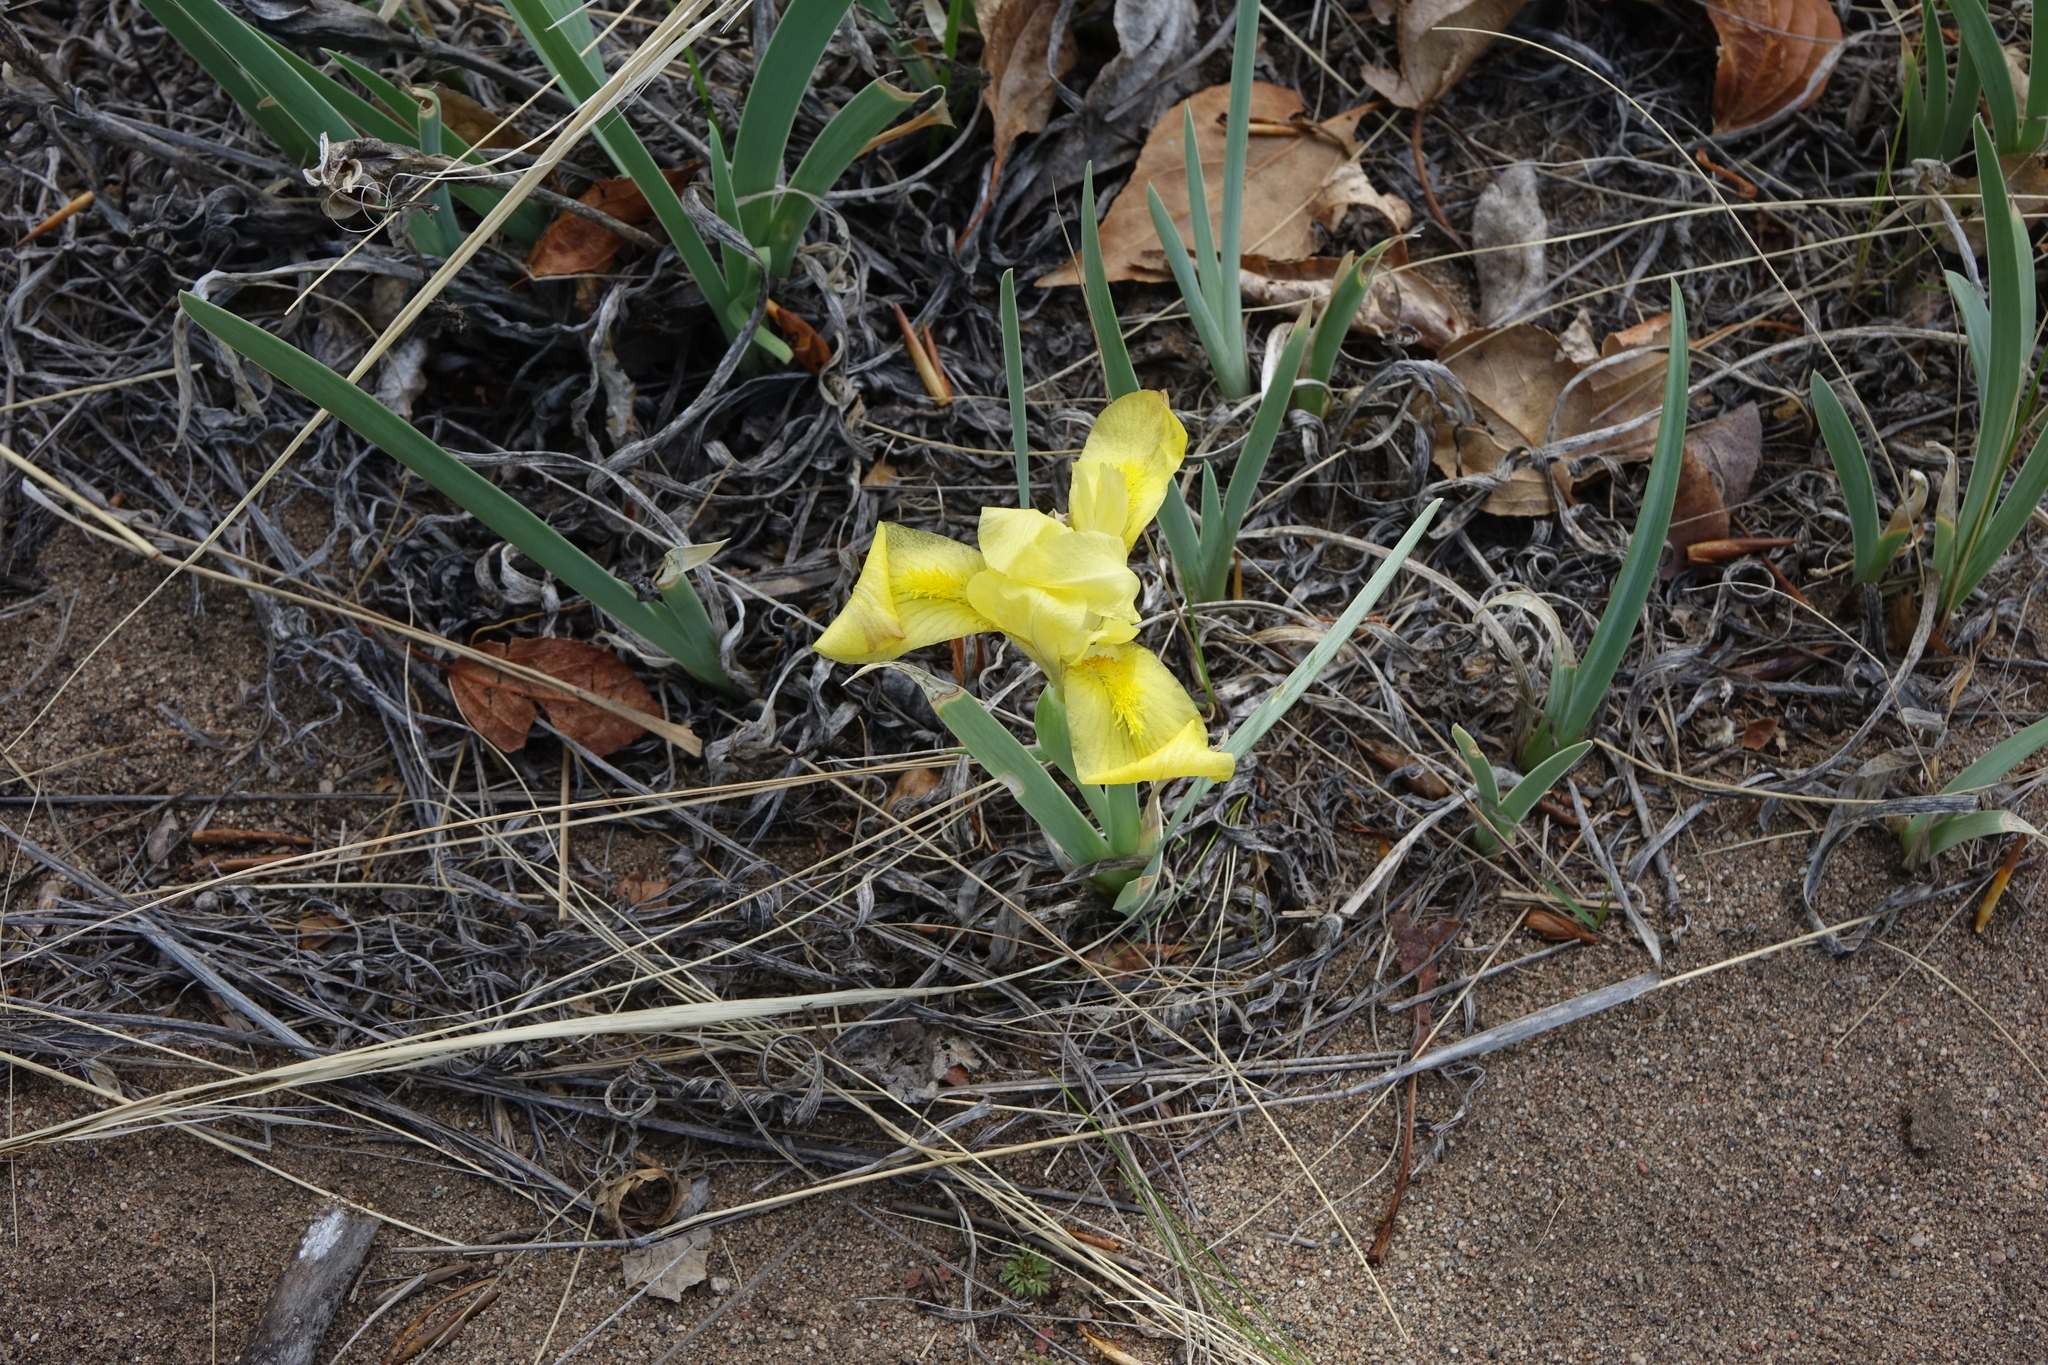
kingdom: Plantae
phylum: Tracheophyta
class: Liliopsida
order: Asparagales
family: Iridaceae
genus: Iris
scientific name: Iris humilis
